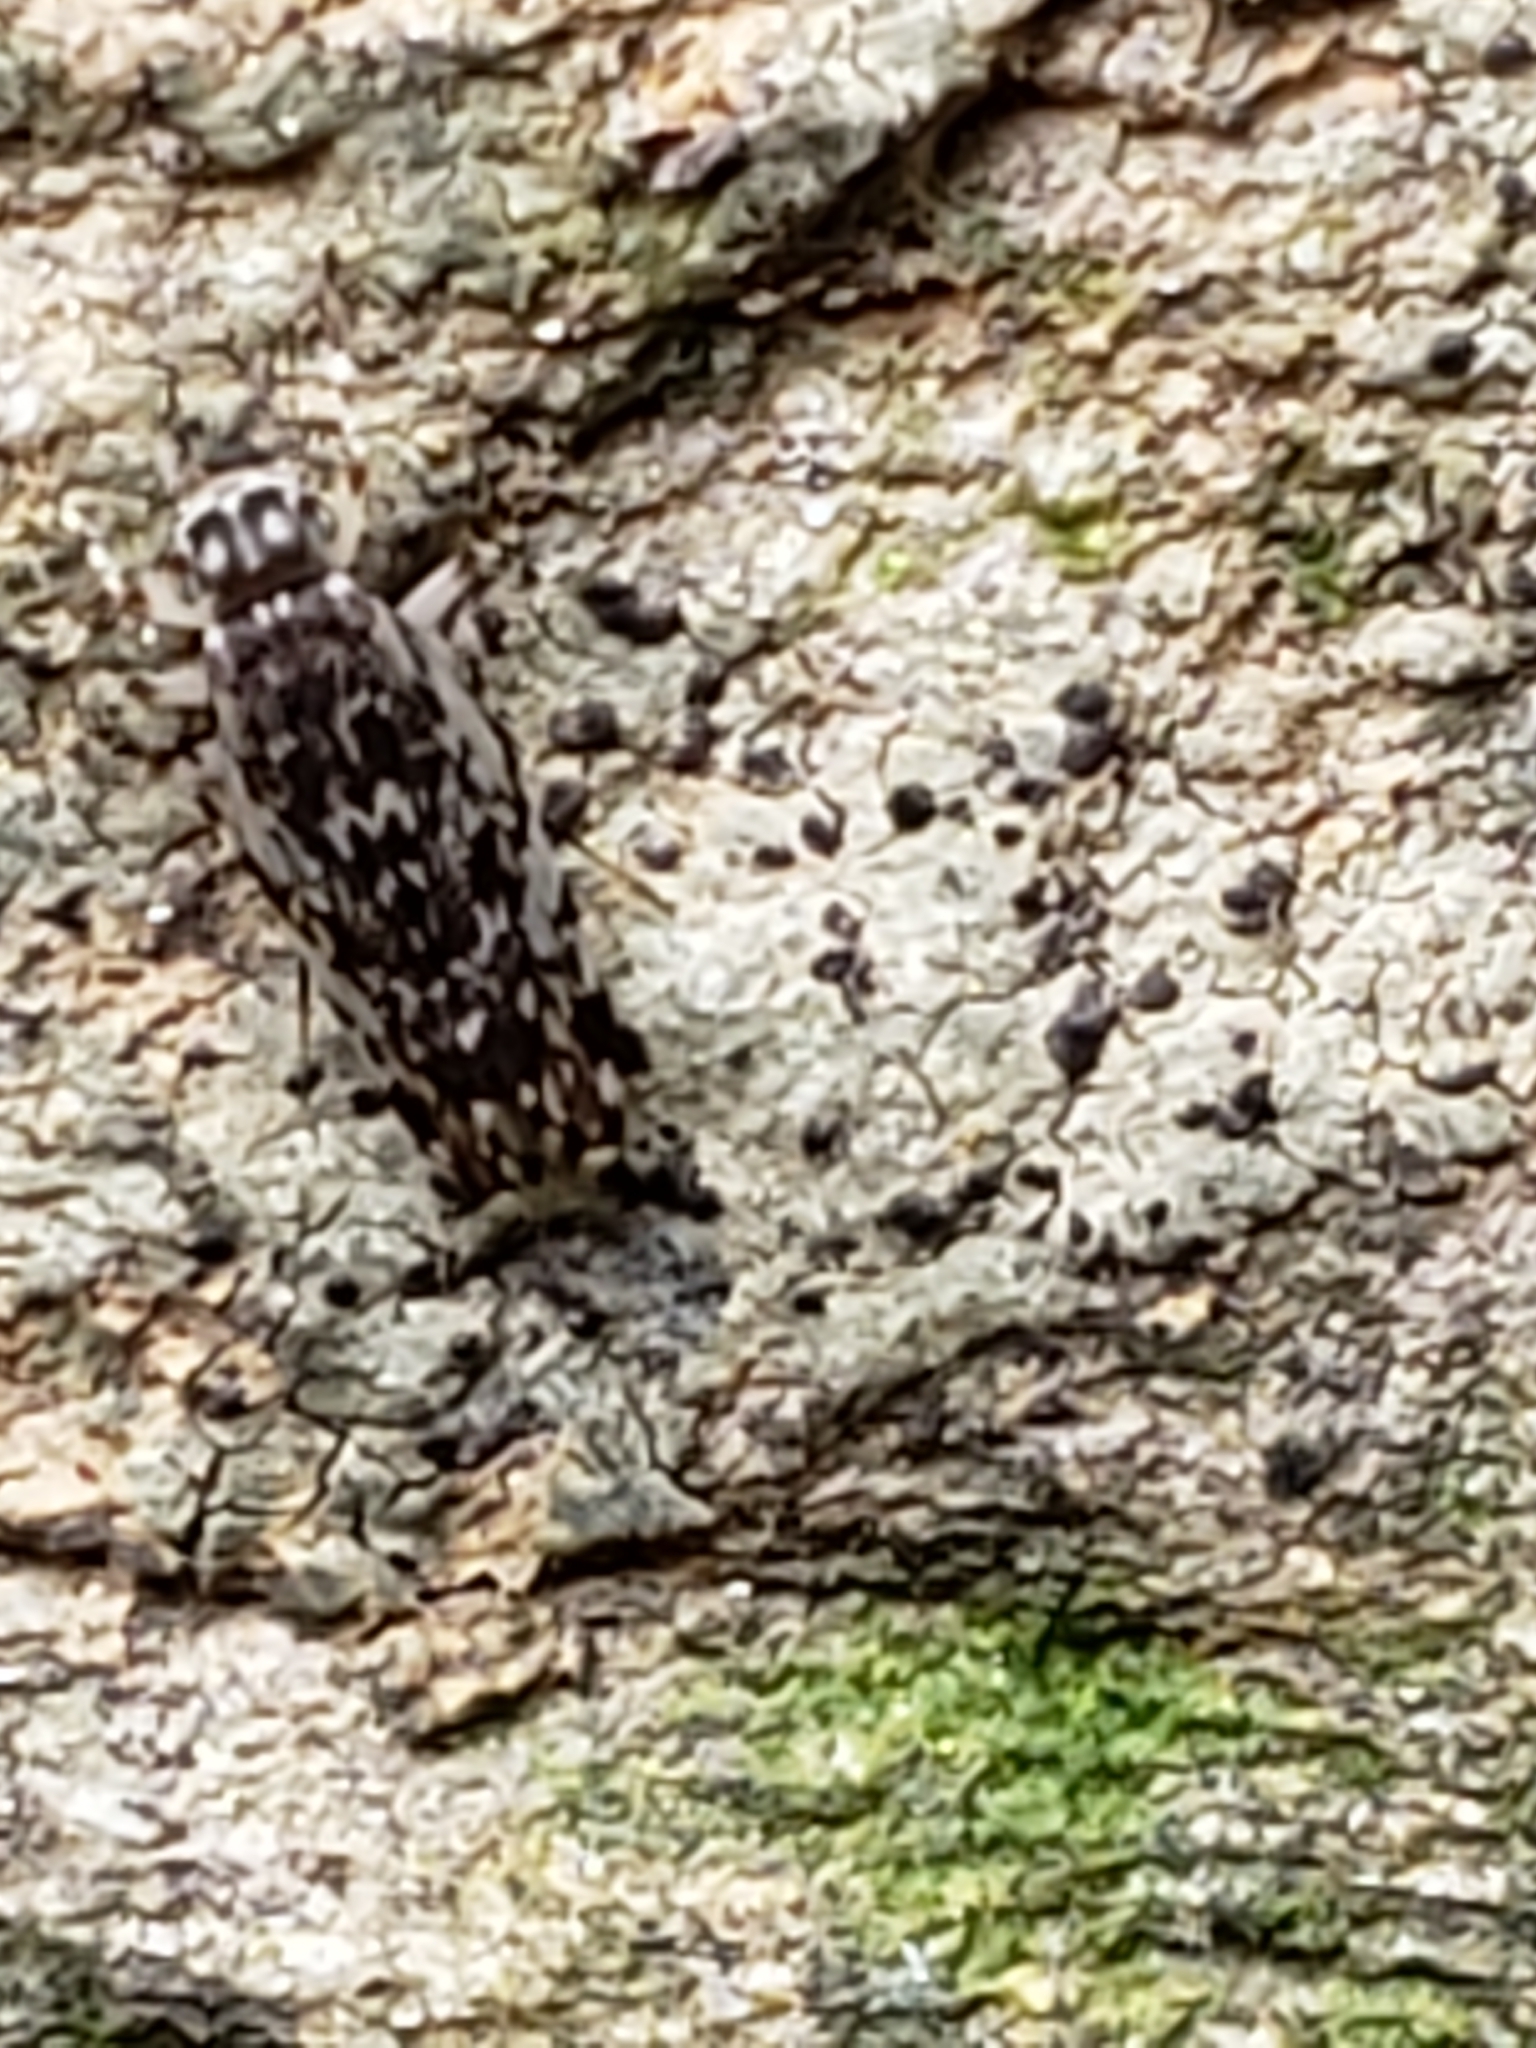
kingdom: Animalia
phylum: Arthropoda
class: Insecta
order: Psocodea
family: Amphientomidae
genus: Stimulopalpus
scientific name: Stimulopalpus japonicus
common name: Tropical bark louse
